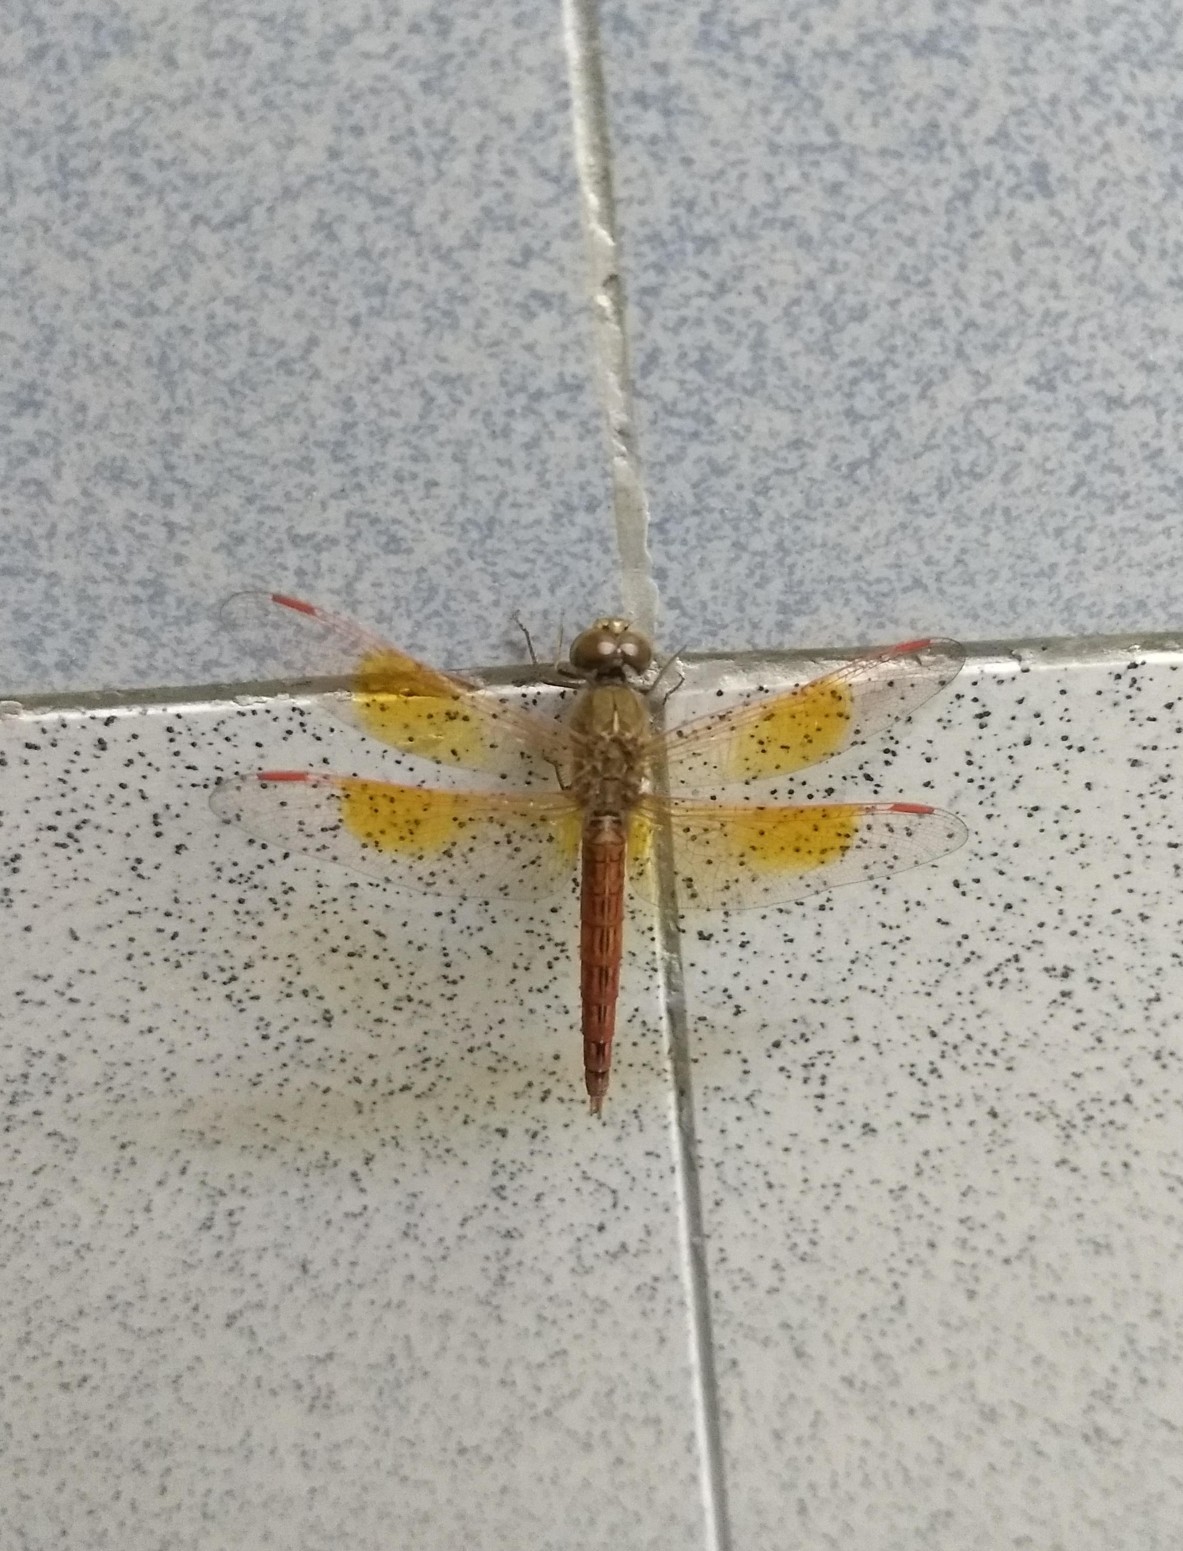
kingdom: Animalia
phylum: Arthropoda
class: Insecta
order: Odonata
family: Libellulidae
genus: Brachythemis
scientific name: Brachythemis contaminata
